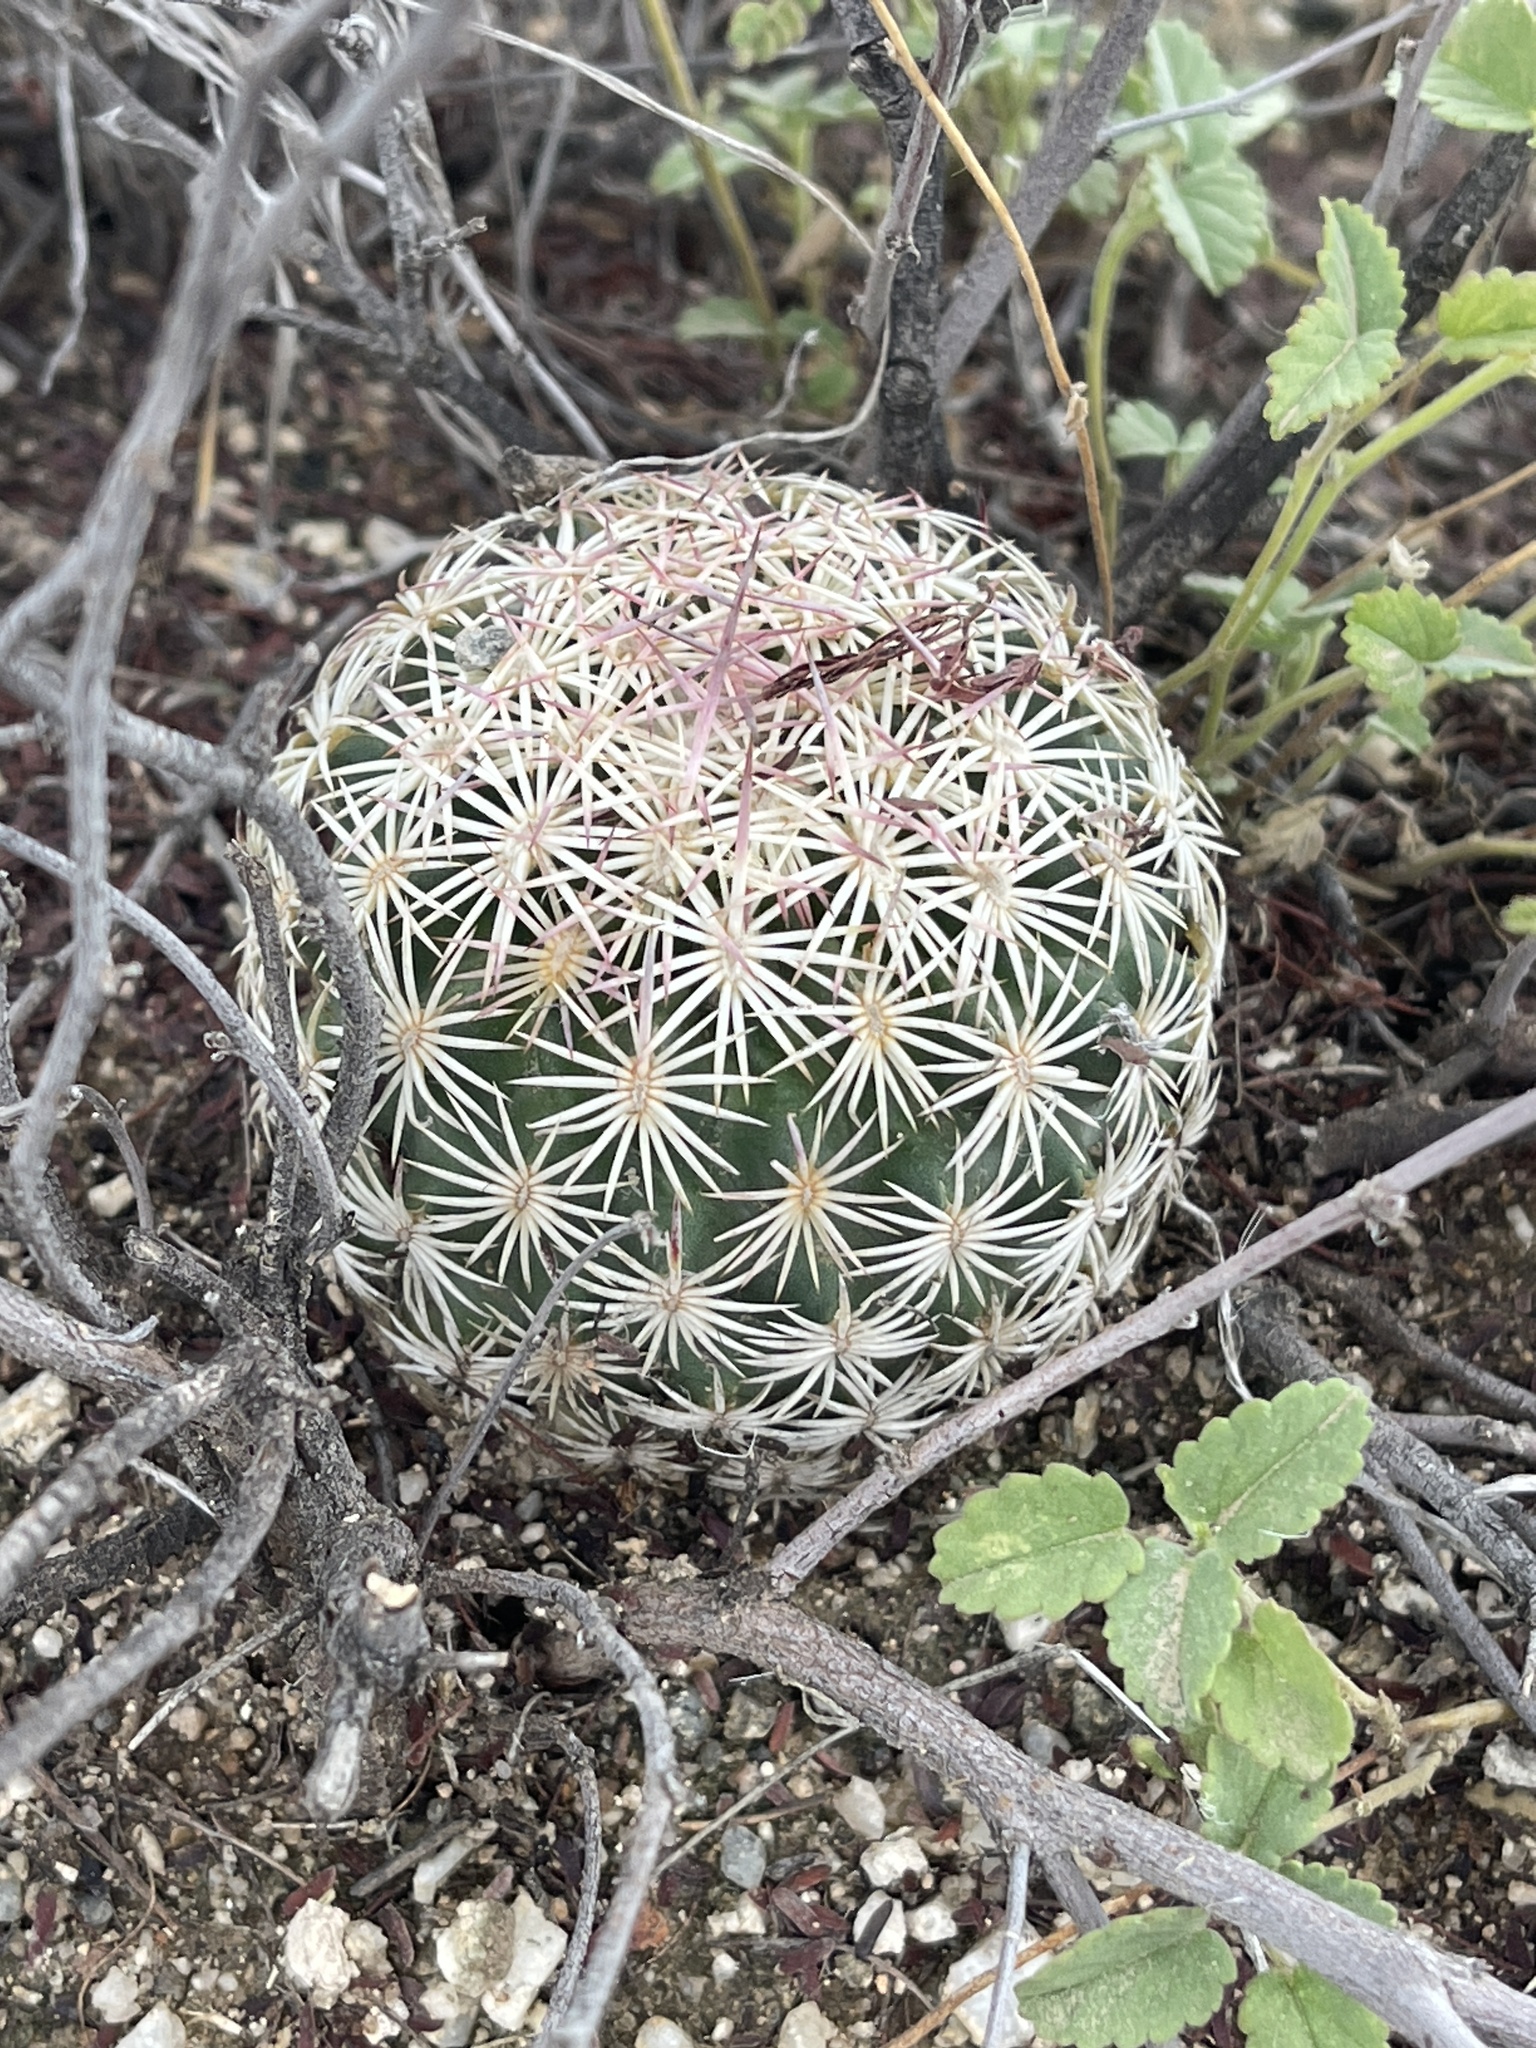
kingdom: Plantae
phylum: Tracheophyta
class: Magnoliopsida
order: Caryophyllales
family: Cactaceae
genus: Sclerocactus
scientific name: Sclerocactus johnsonii
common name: Eight-spine fishhook cactus
